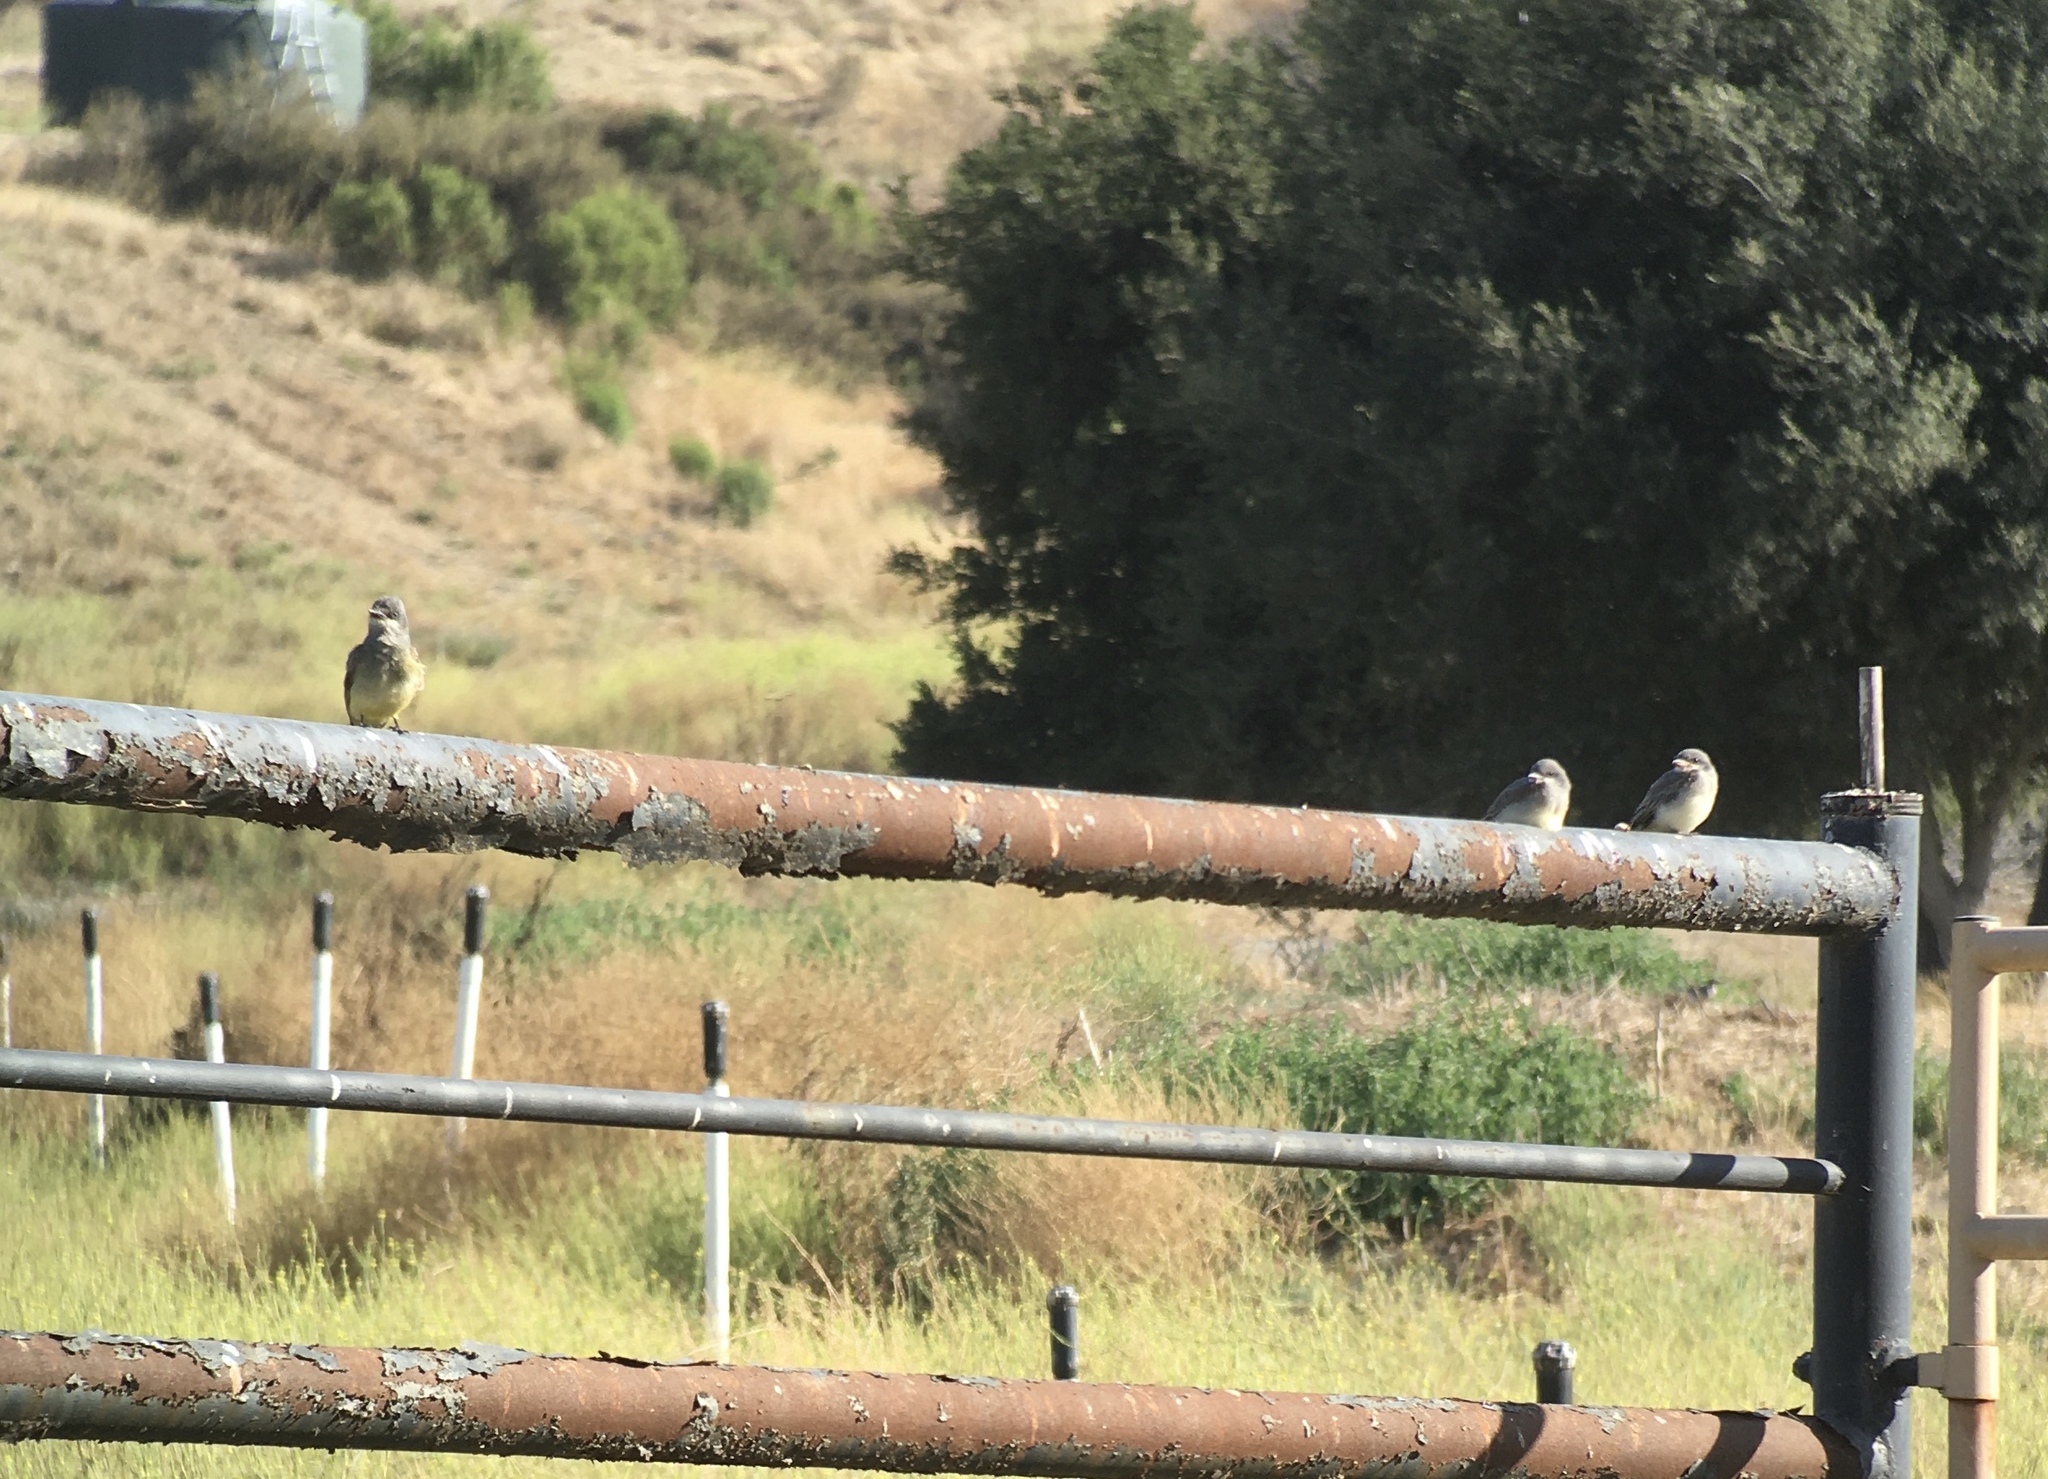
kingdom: Animalia
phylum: Chordata
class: Aves
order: Passeriformes
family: Tyrannidae
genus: Tyrannus
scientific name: Tyrannus vociferans
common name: Cassin's kingbird
